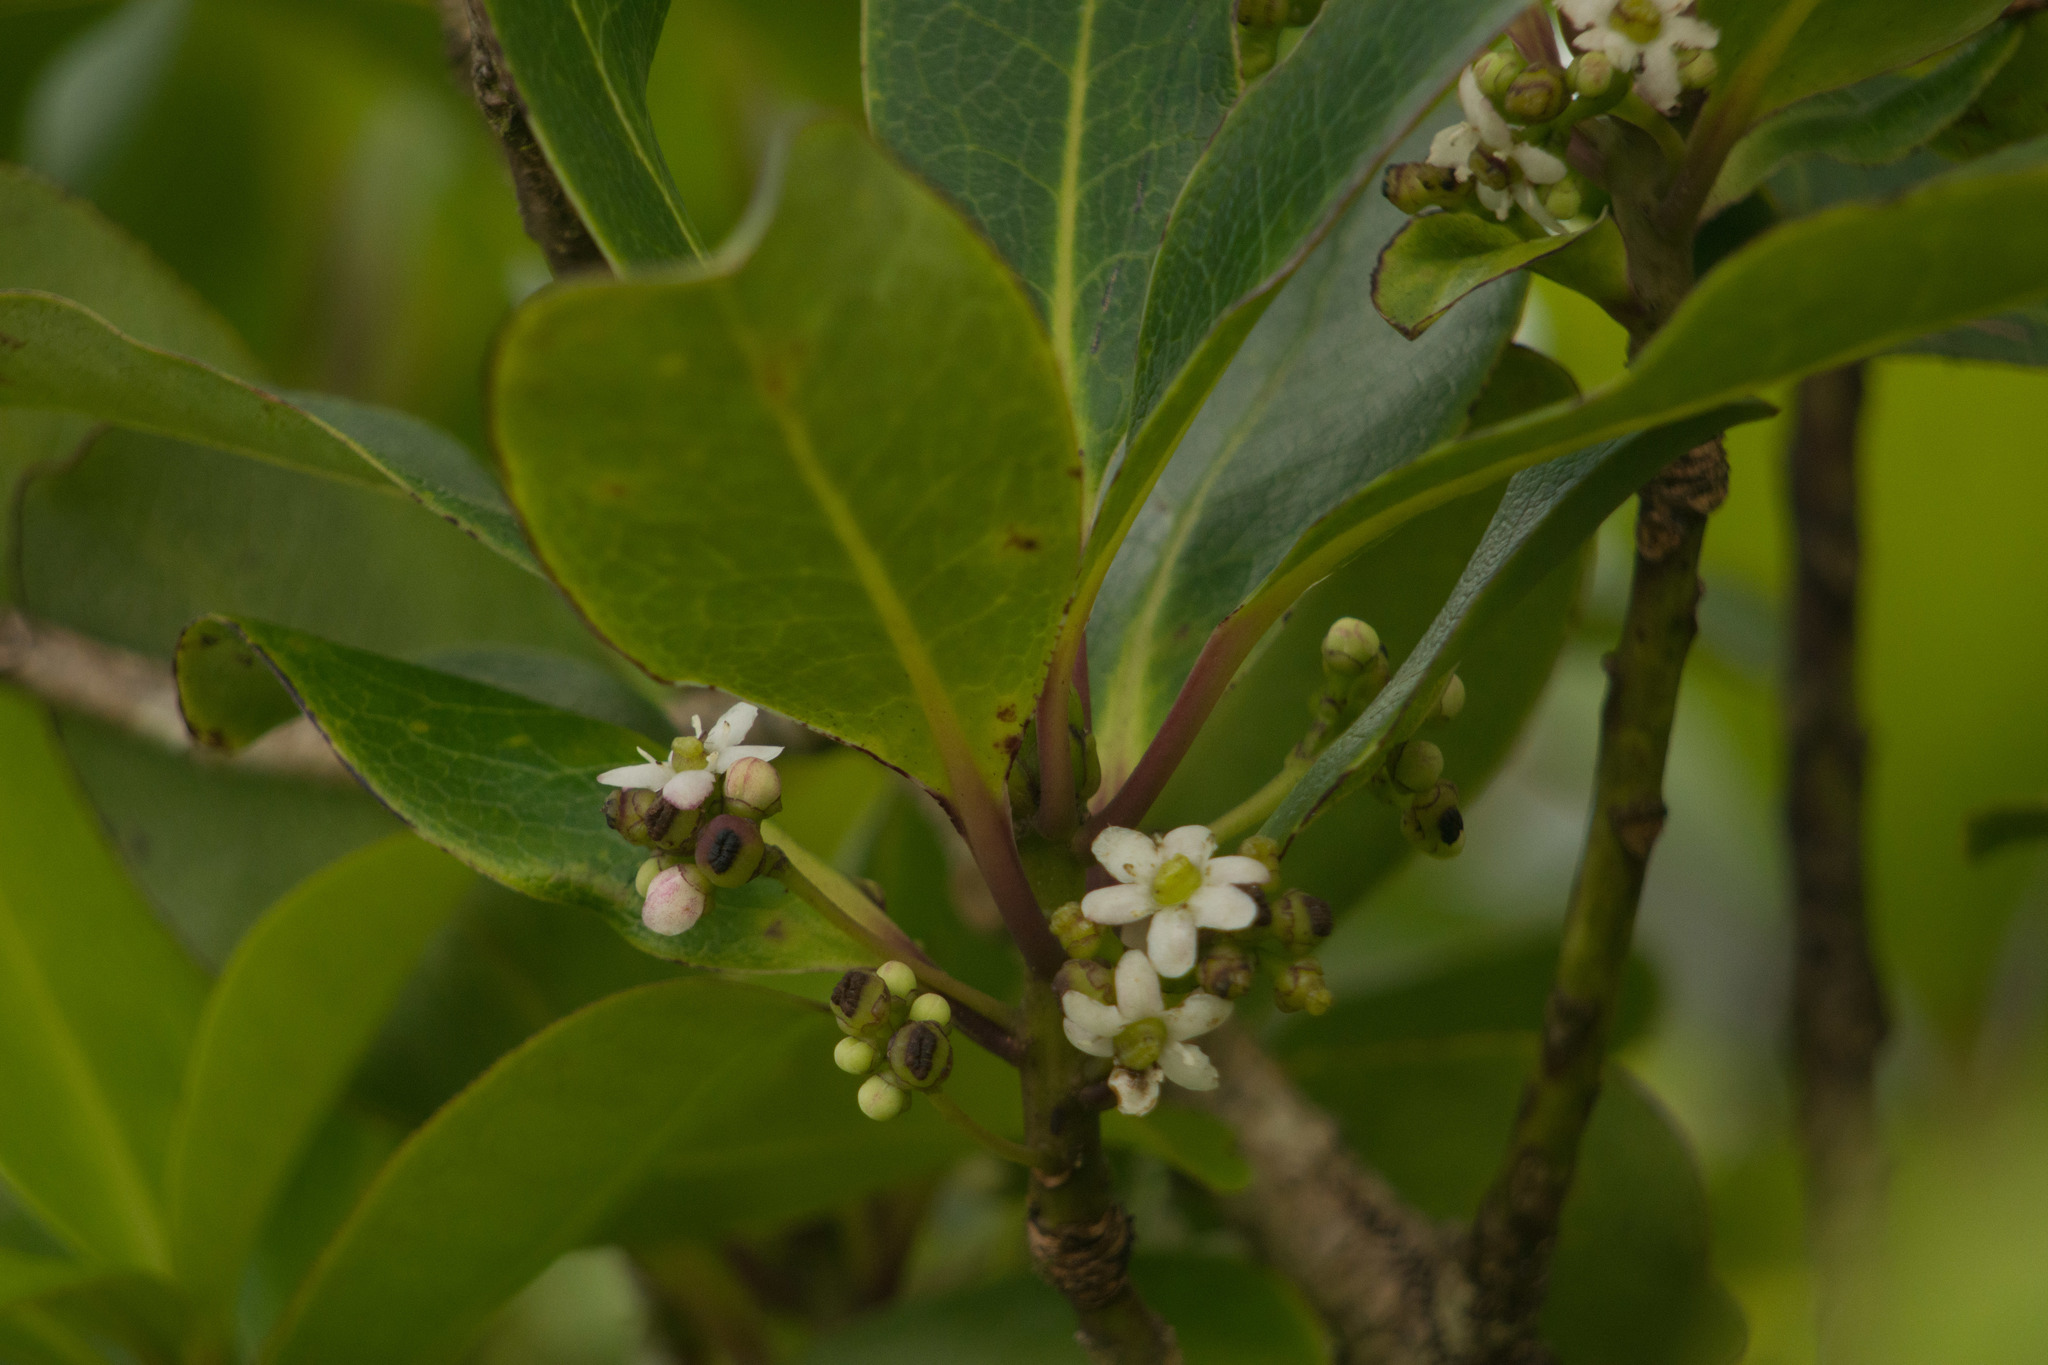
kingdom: Plantae
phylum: Tracheophyta
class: Magnoliopsida
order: Aquifoliales
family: Aquifoliaceae
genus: Ilex
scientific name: Ilex anomala
